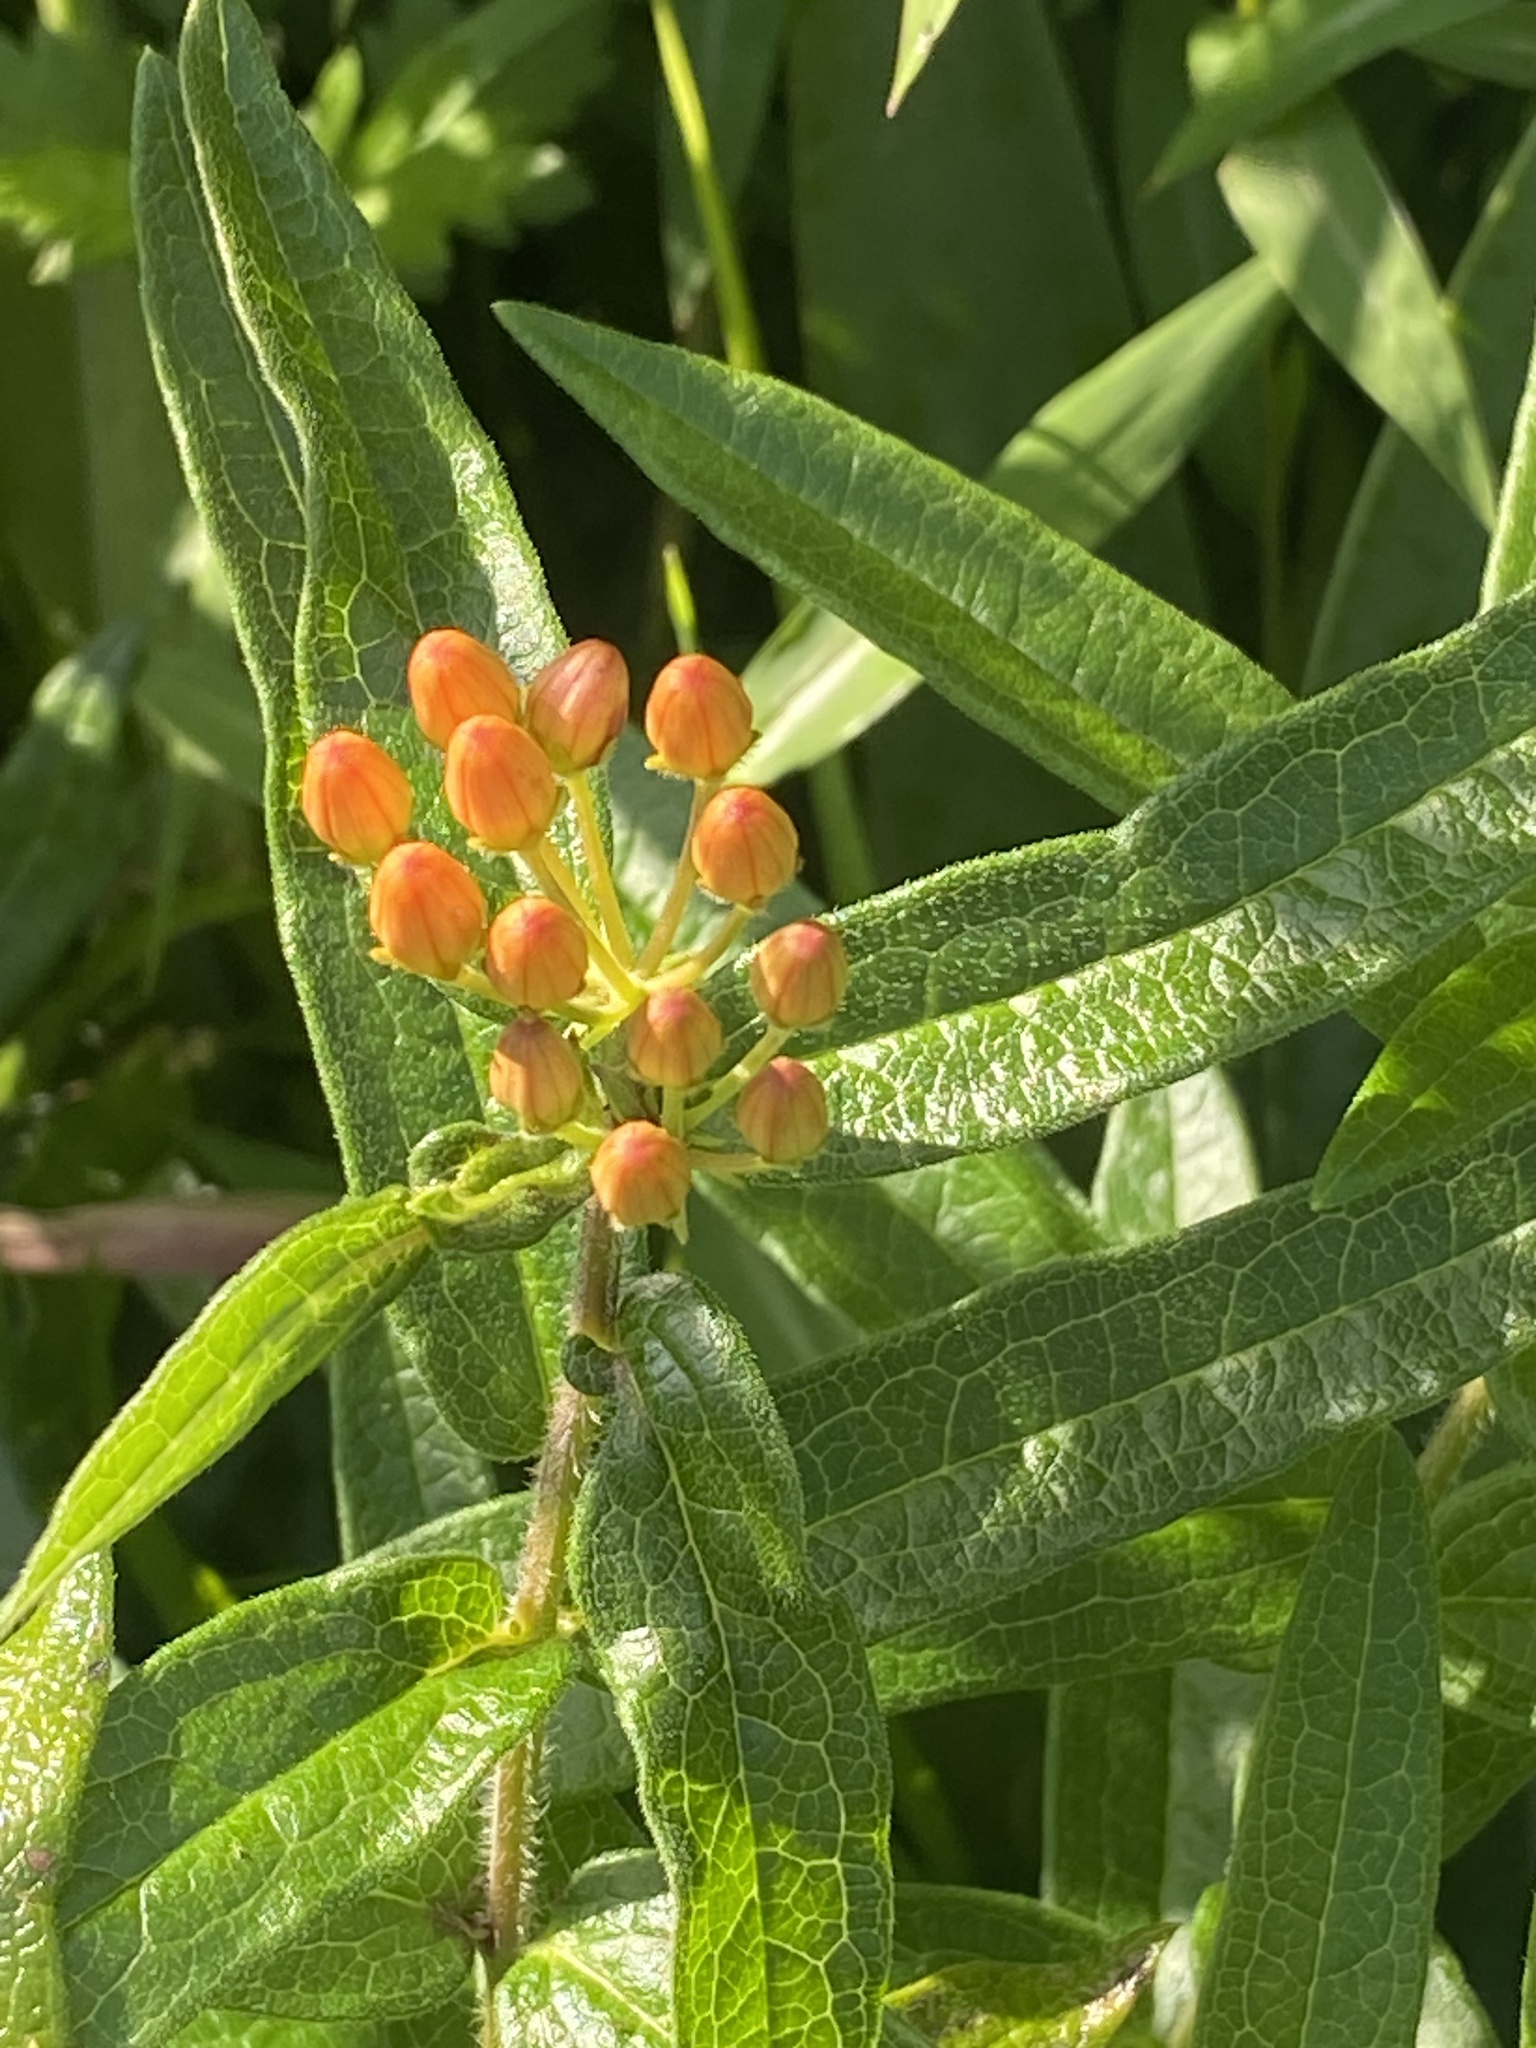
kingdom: Plantae
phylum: Tracheophyta
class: Magnoliopsida
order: Gentianales
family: Apocynaceae
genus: Asclepias
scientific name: Asclepias tuberosa
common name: Butterfly milkweed
